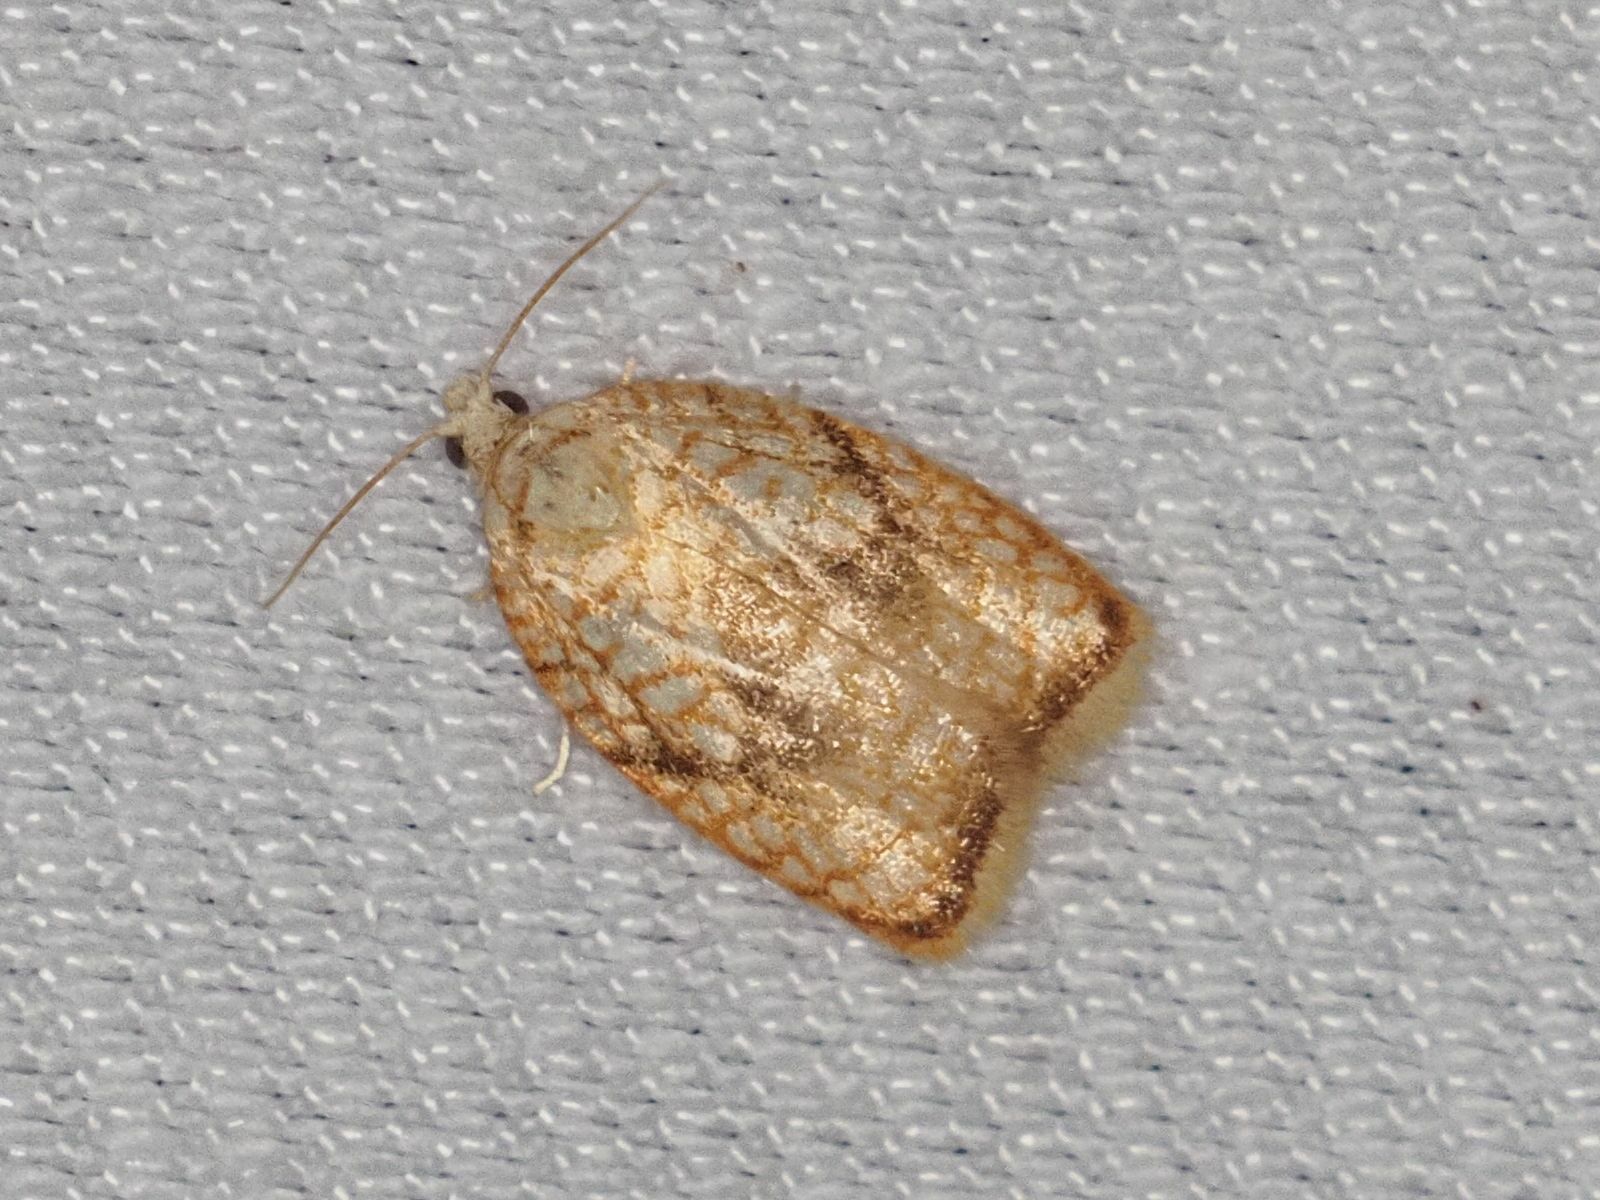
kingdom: Animalia
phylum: Arthropoda
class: Insecta
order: Lepidoptera
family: Tortricidae
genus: Acleris
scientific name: Acleris forsskaleana
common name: Maple button
